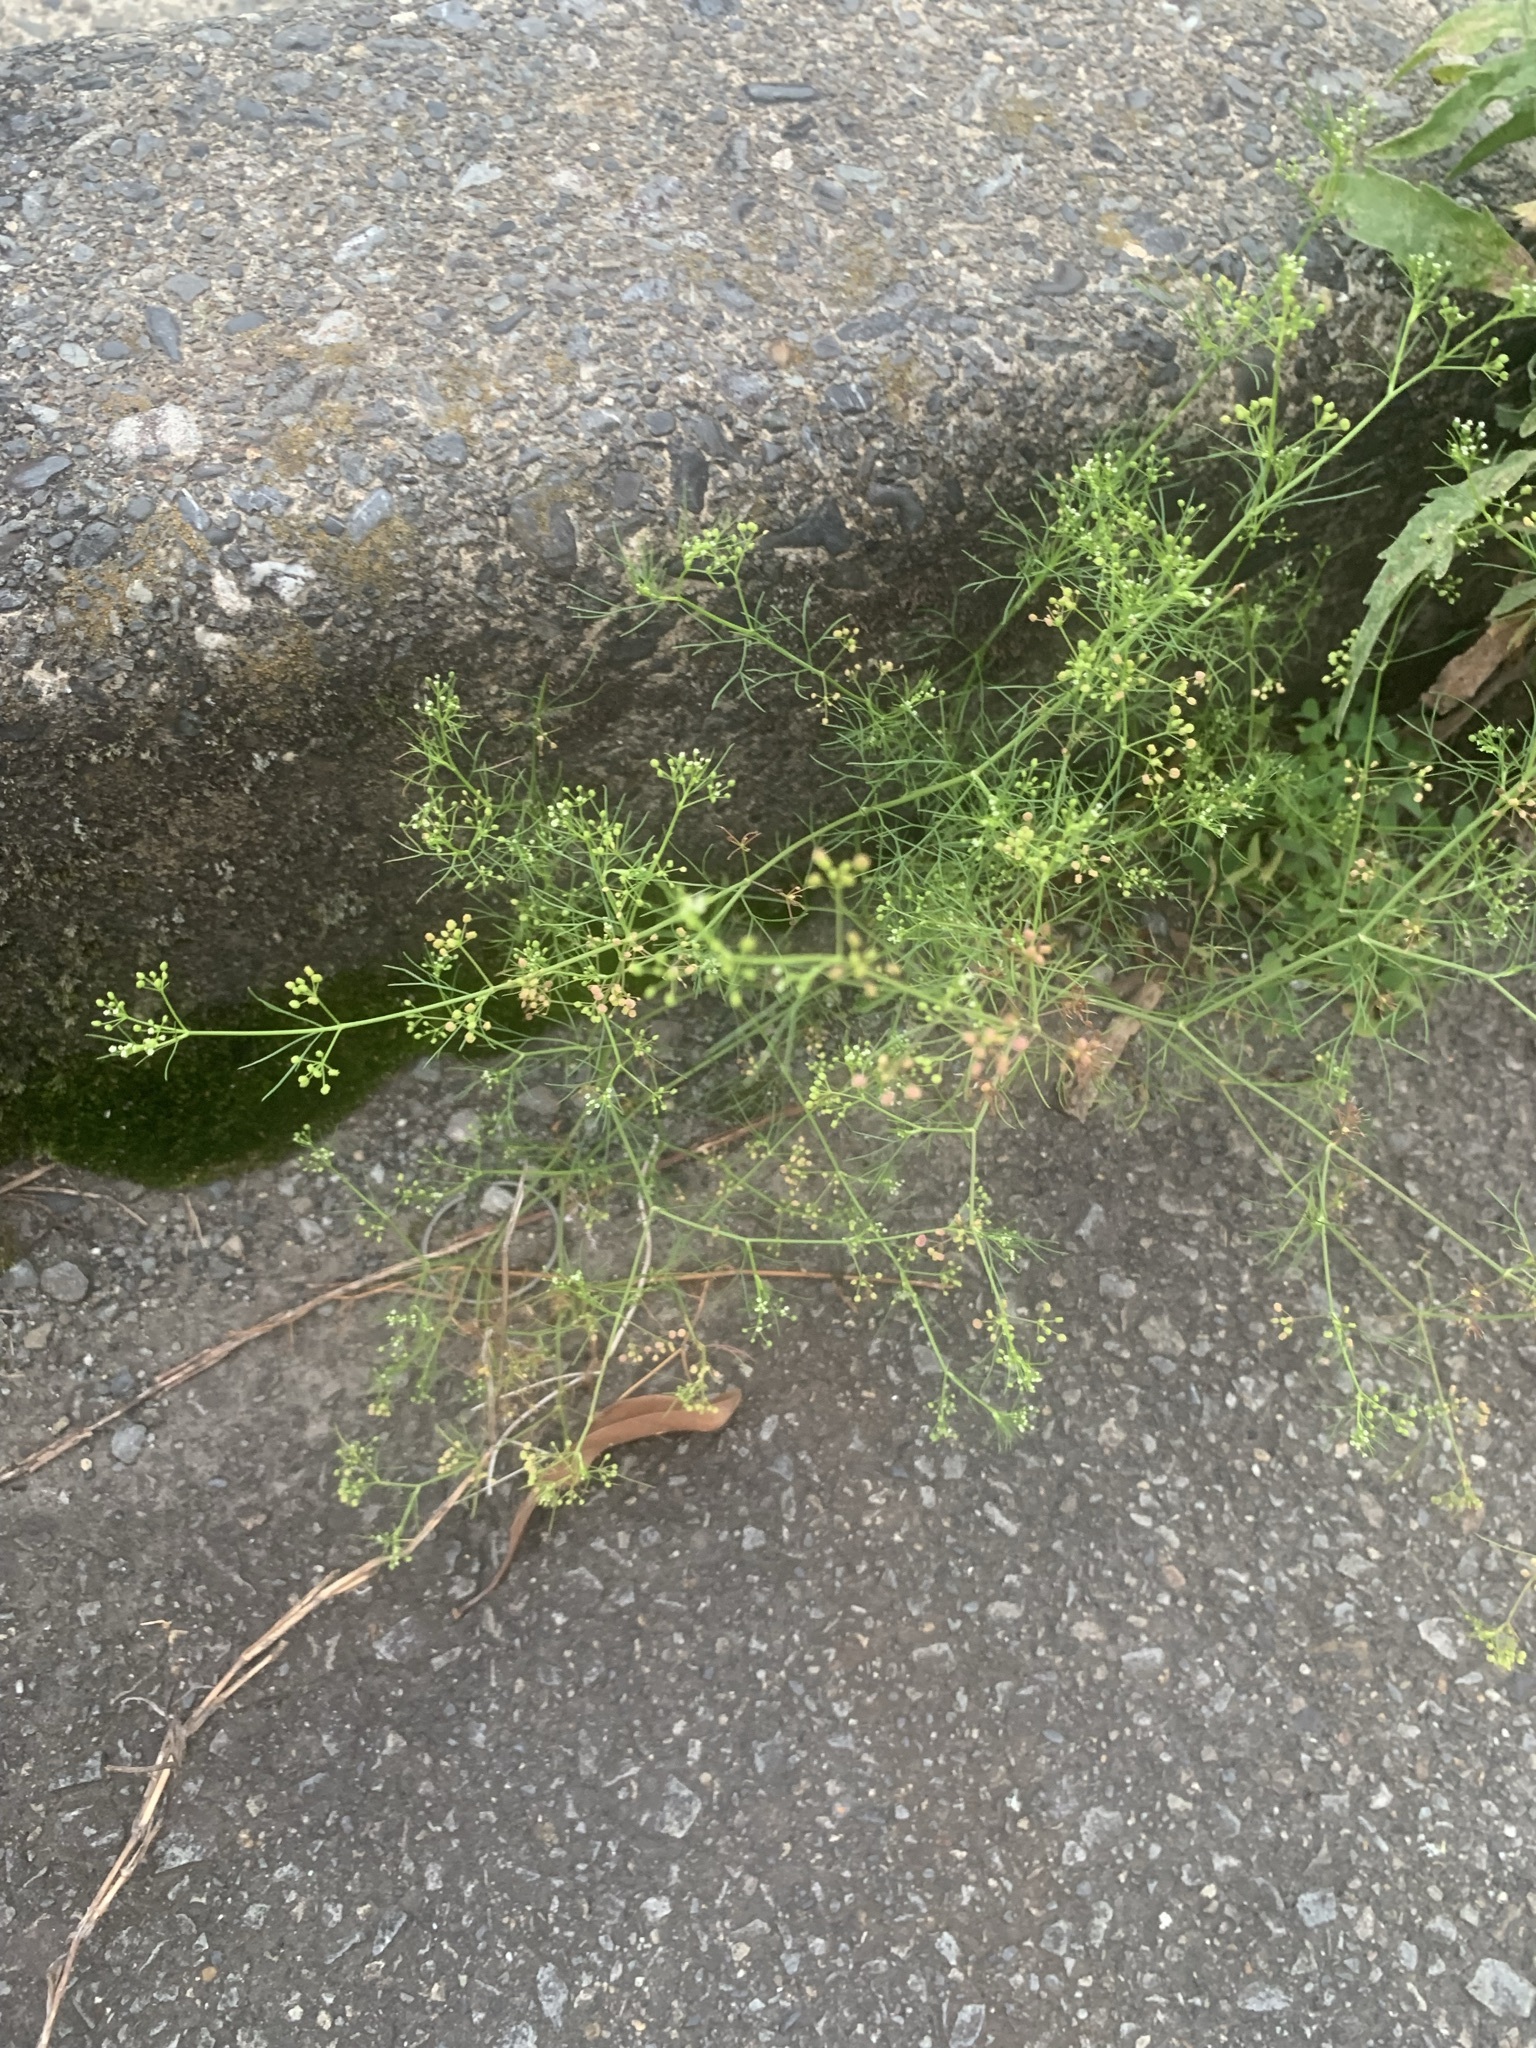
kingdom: Plantae
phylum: Tracheophyta
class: Magnoliopsida
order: Apiales
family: Apiaceae
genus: Cyclospermum
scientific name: Cyclospermum leptophyllum
